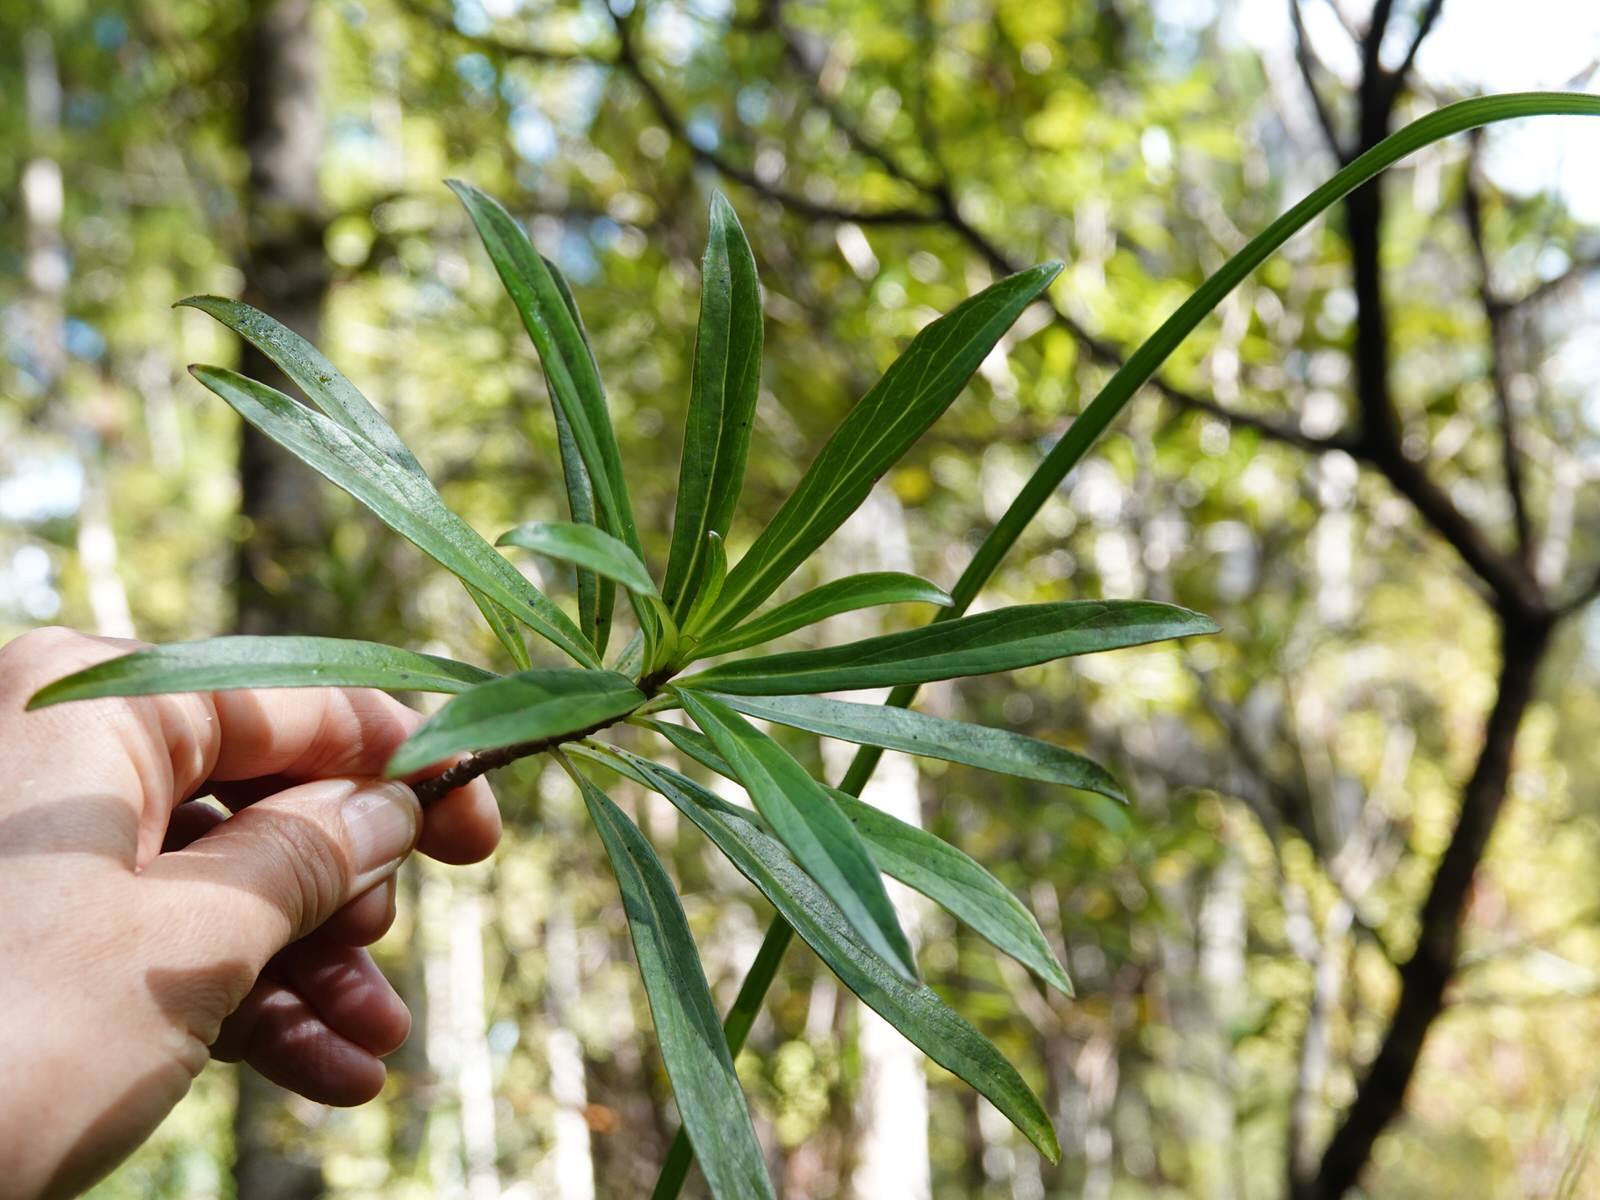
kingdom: Plantae
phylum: Tracheophyta
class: Magnoliopsida
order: Asterales
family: Asteraceae
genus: Brachyglottis
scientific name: Brachyglottis kirkii
